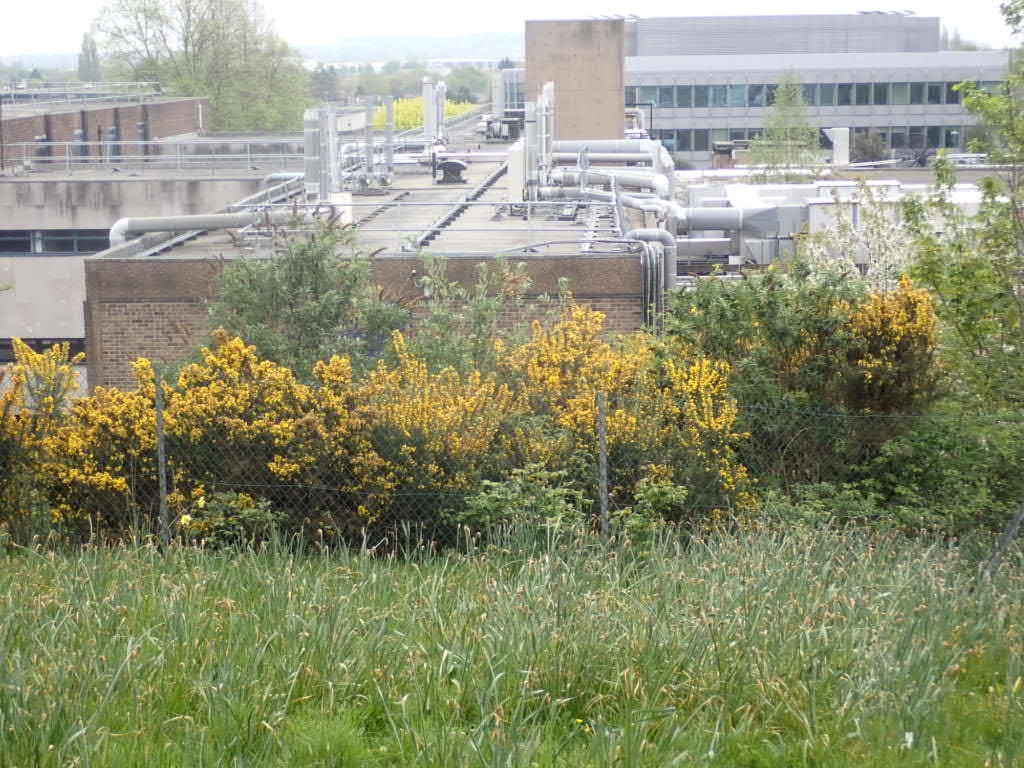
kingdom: Plantae
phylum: Tracheophyta
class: Magnoliopsida
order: Fabales
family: Fabaceae
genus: Ulex
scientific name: Ulex europaeus
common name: Common gorse
